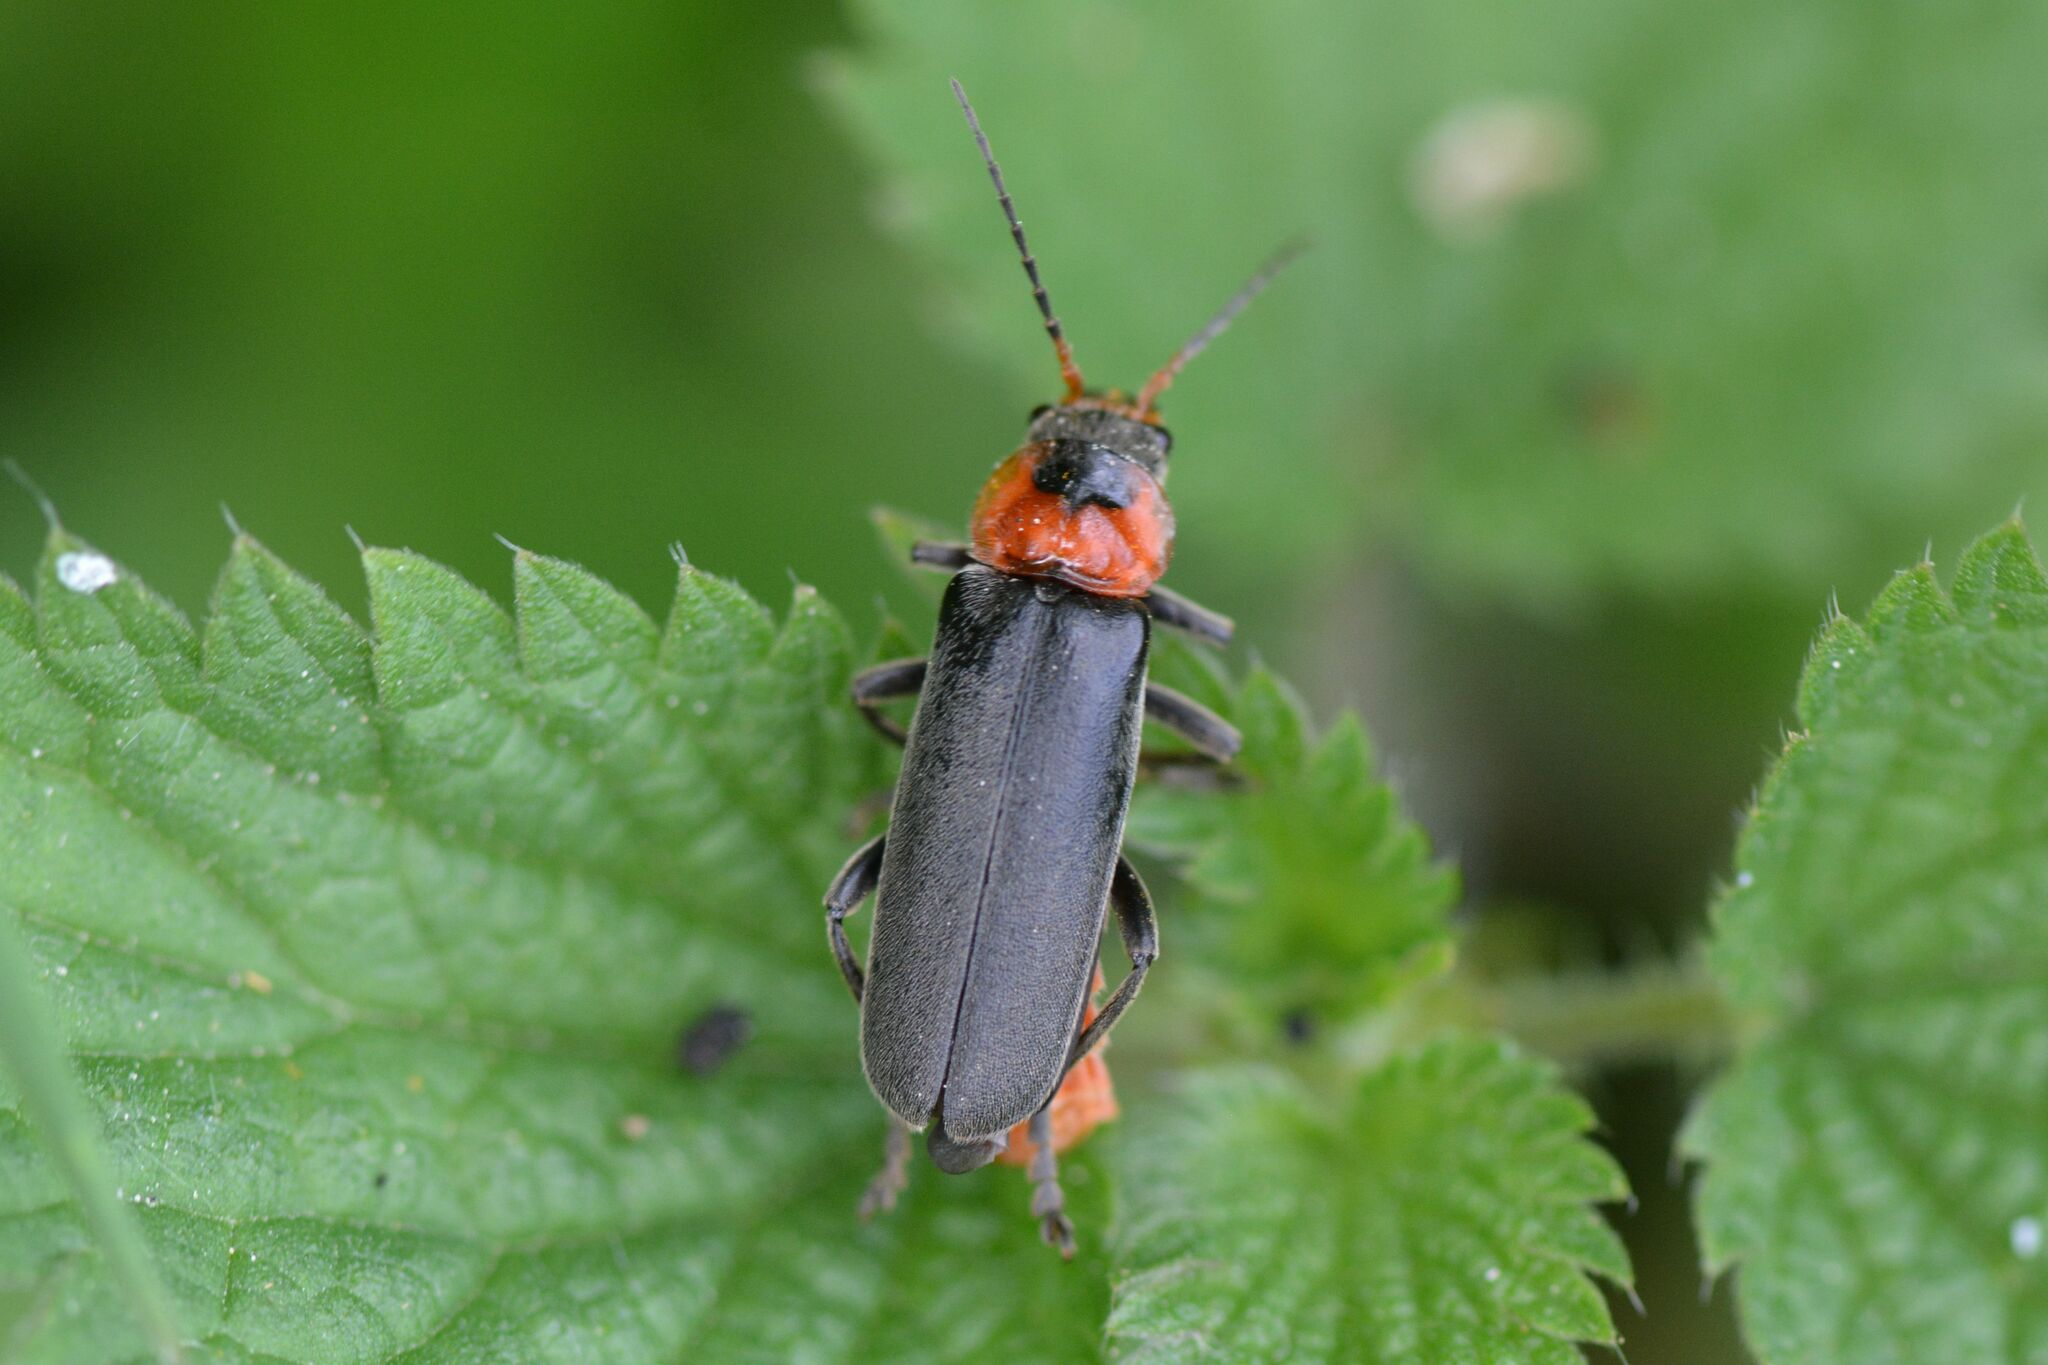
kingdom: Animalia
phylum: Arthropoda
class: Insecta
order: Coleoptera
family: Cantharidae
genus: Cantharis
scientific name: Cantharis fusca
